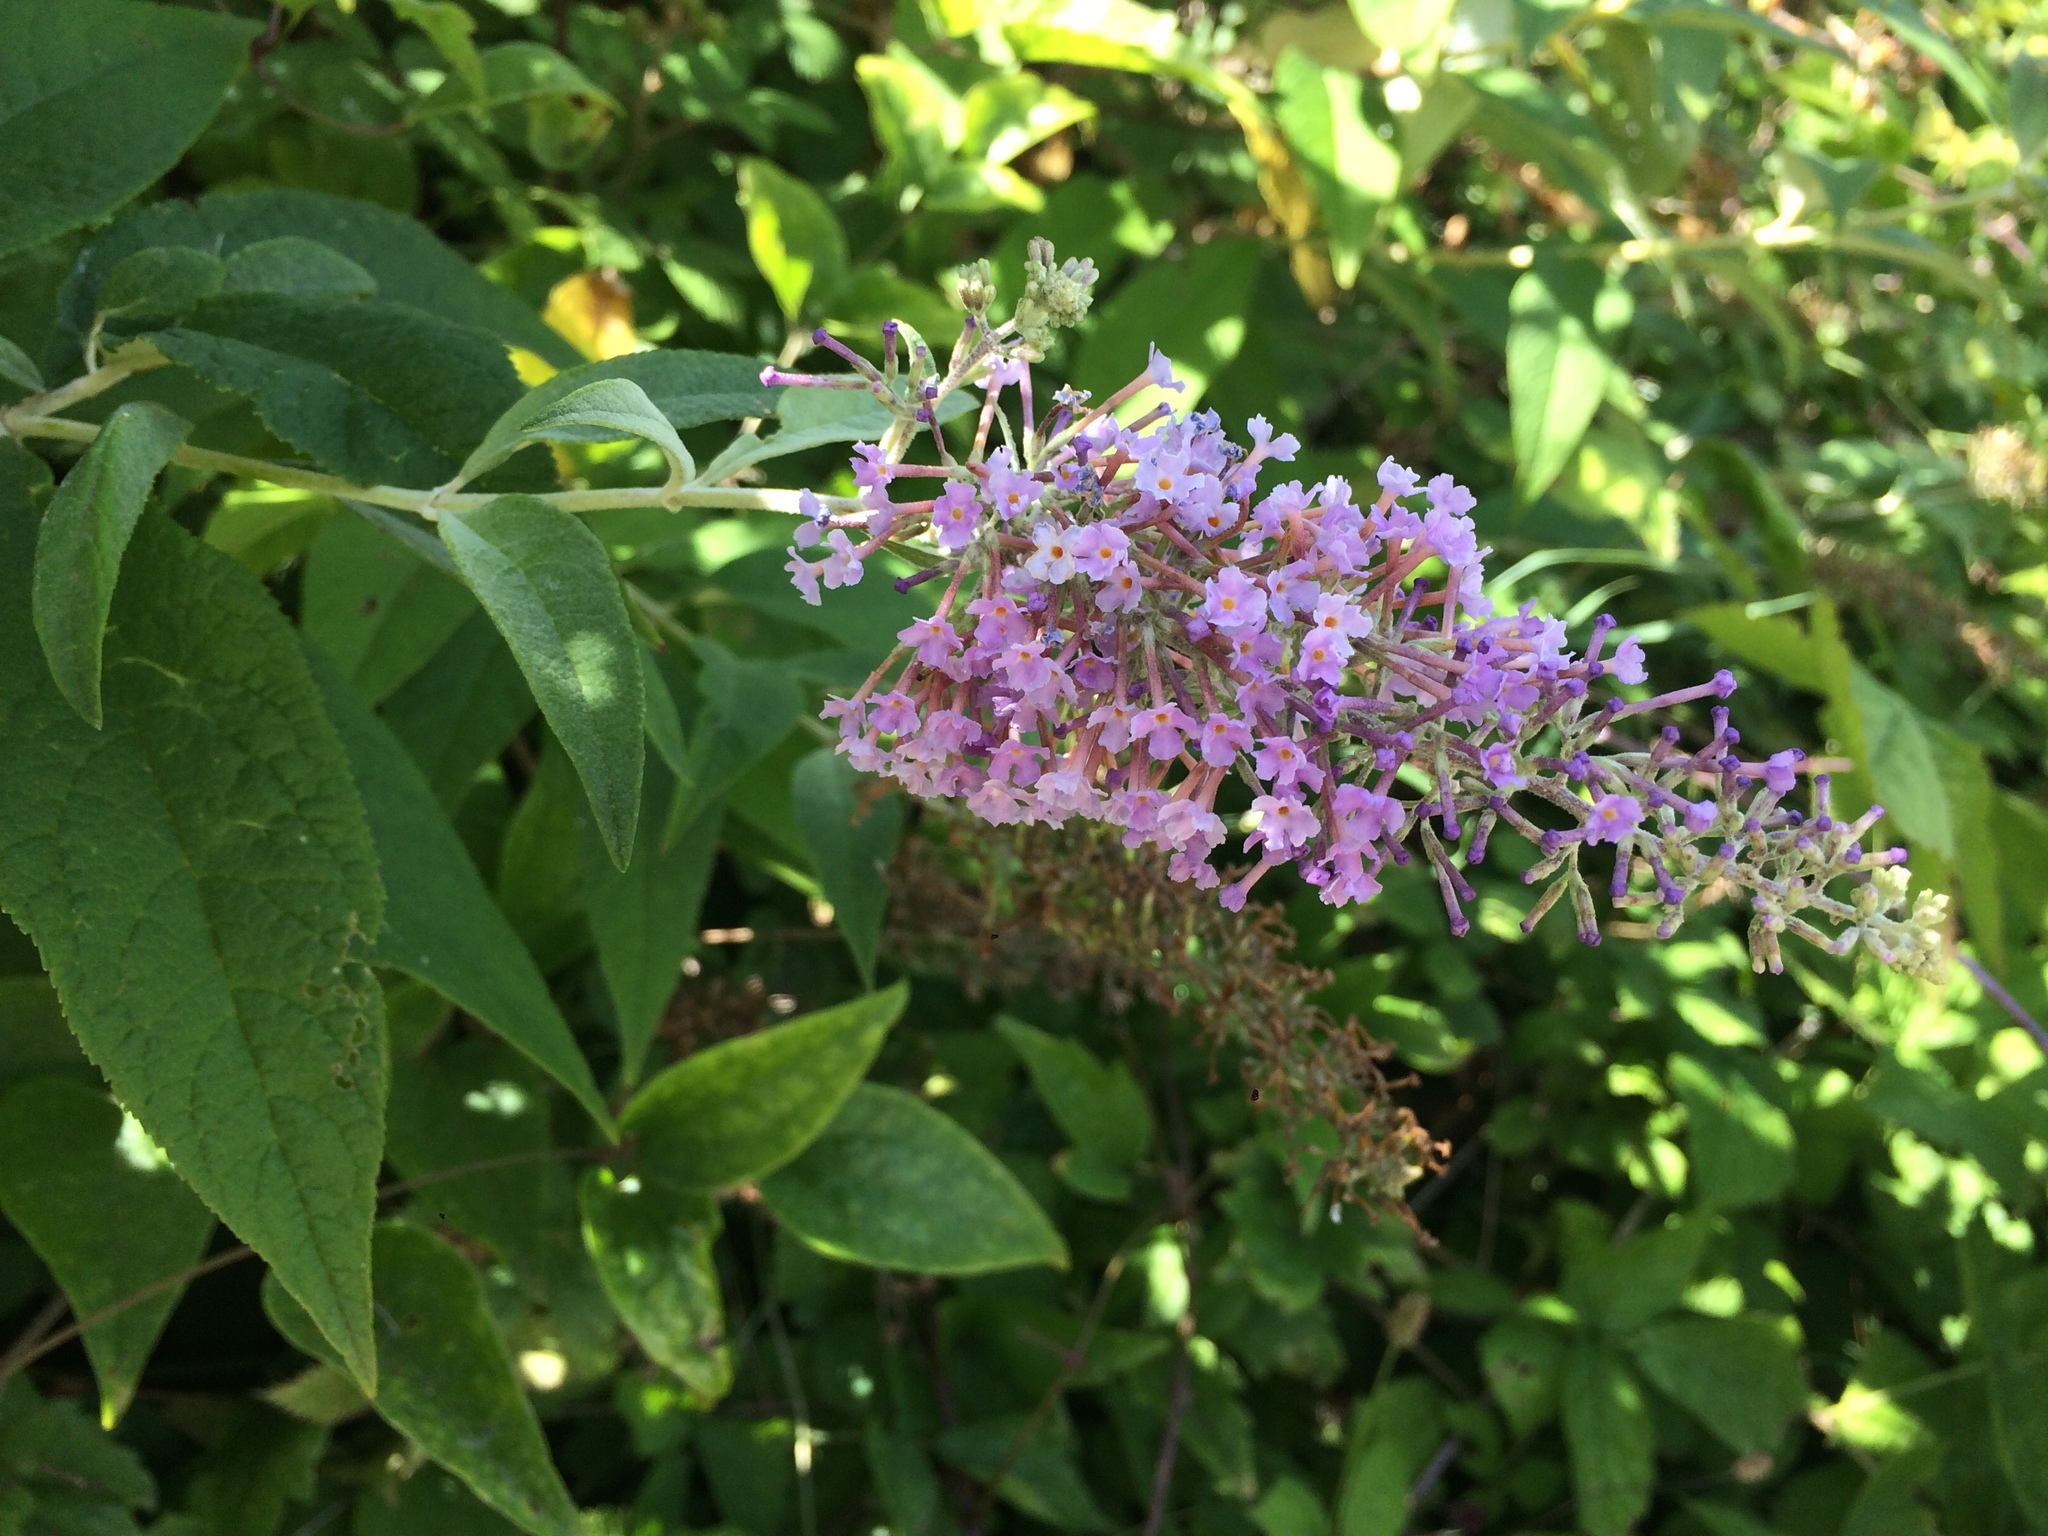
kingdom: Plantae
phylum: Tracheophyta
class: Magnoliopsida
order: Lamiales
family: Scrophulariaceae
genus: Buddleja
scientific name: Buddleja davidii
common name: Butterfly-bush
